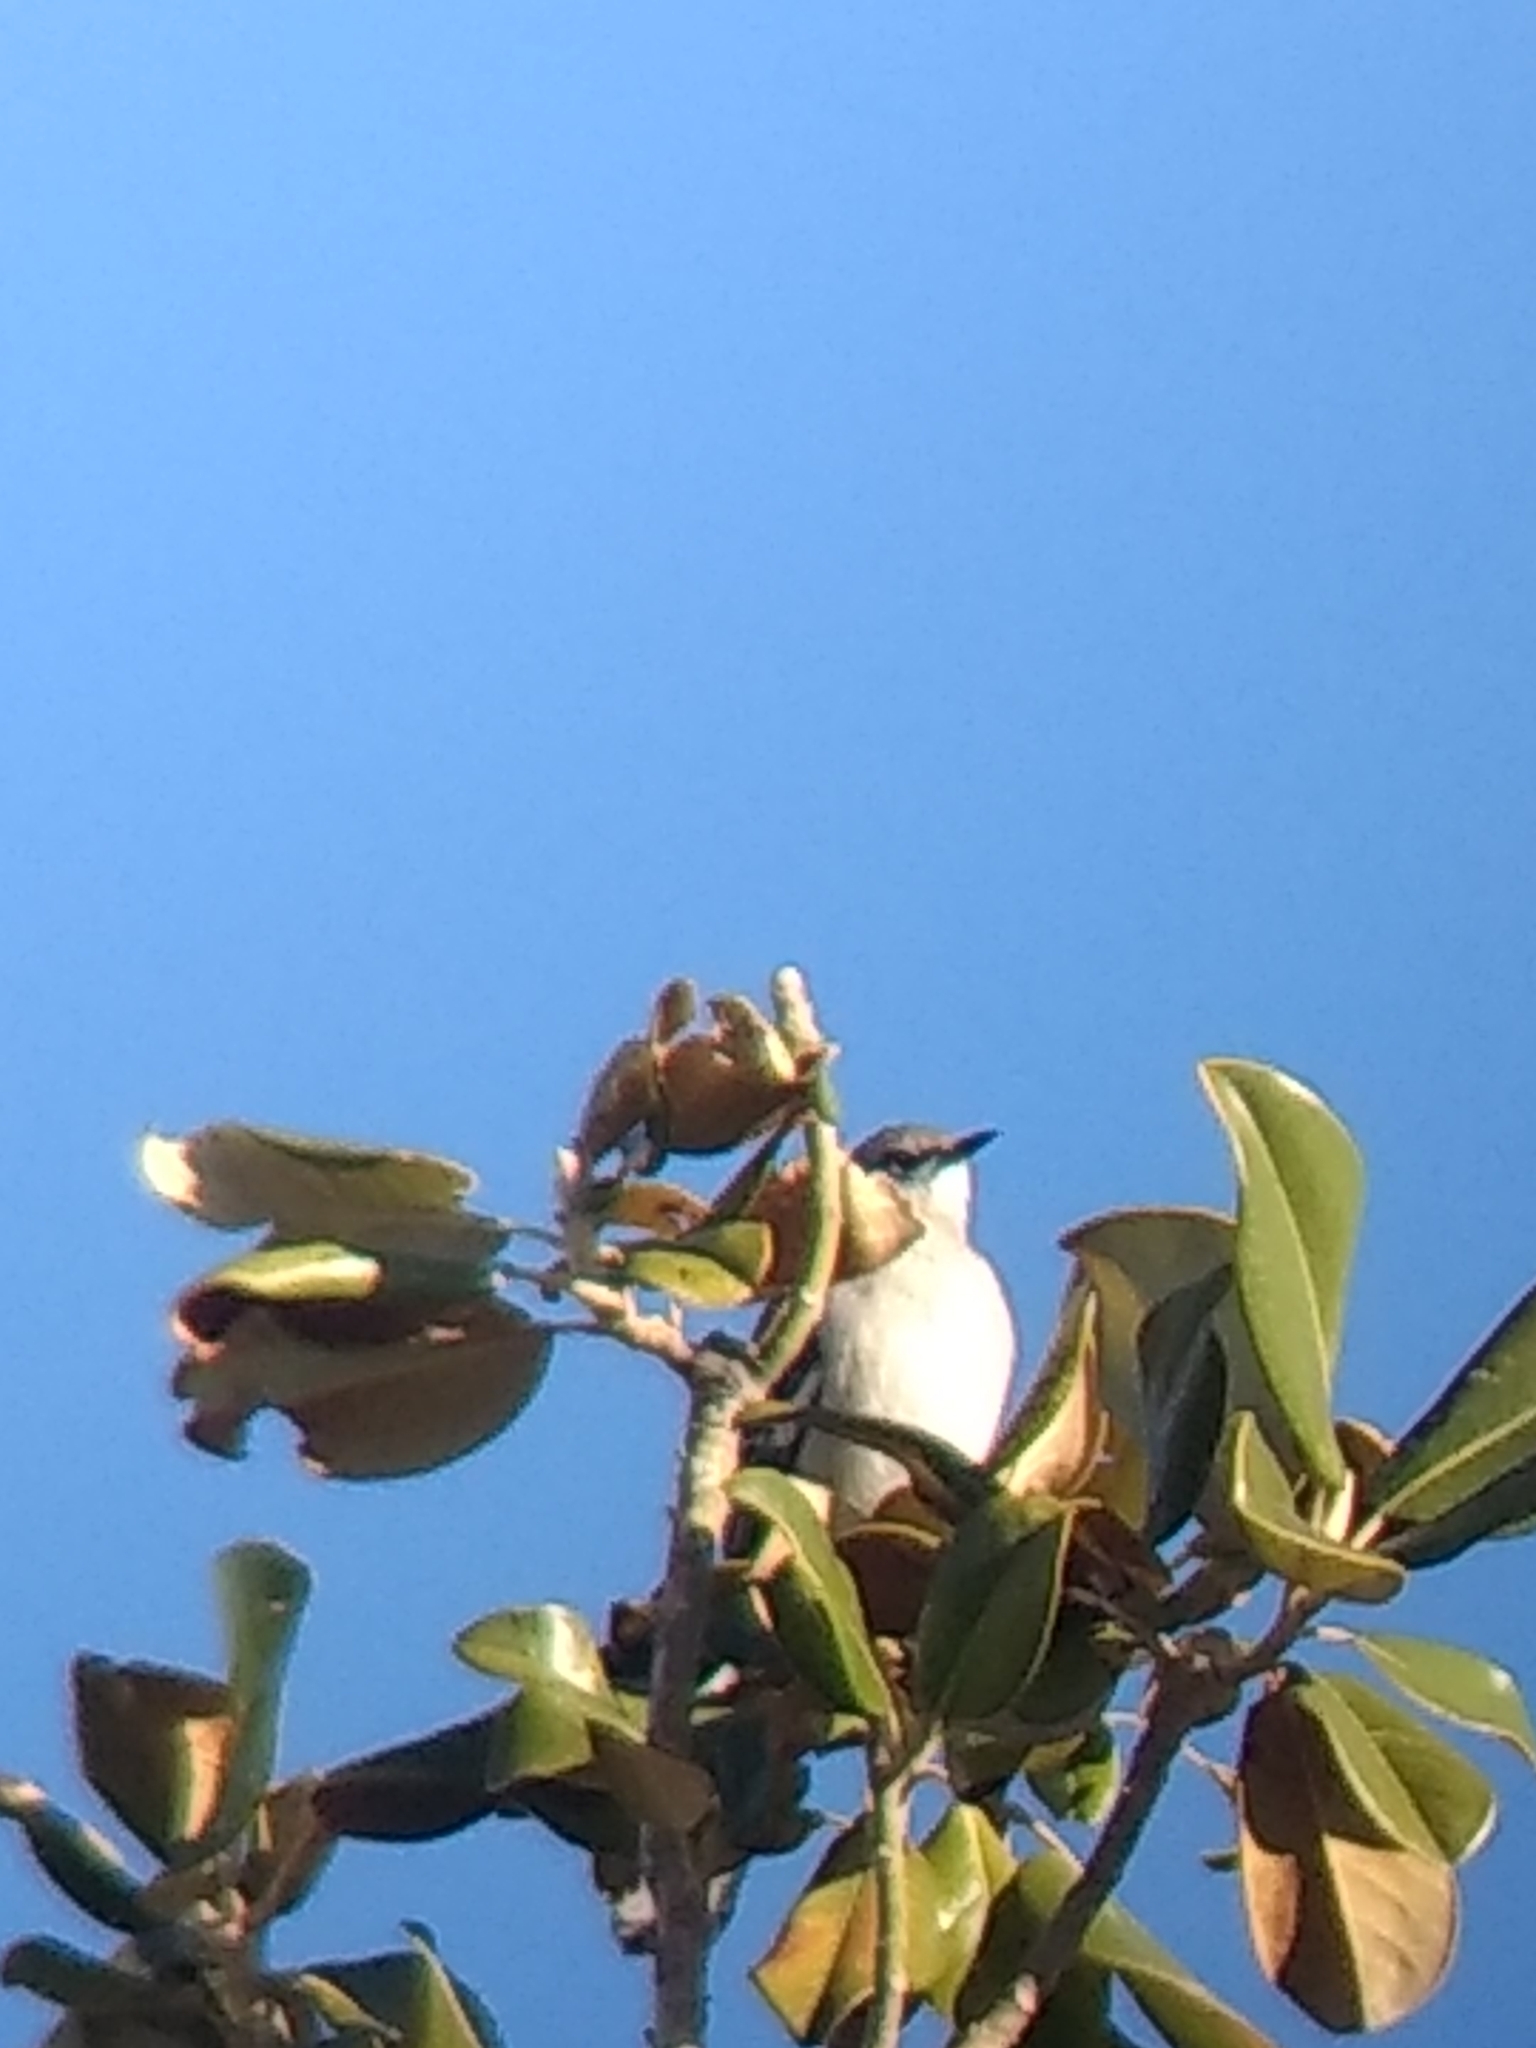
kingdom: Animalia
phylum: Chordata
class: Aves
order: Passeriformes
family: Mimidae
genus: Mimus
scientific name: Mimus polyglottos
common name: Northern mockingbird
